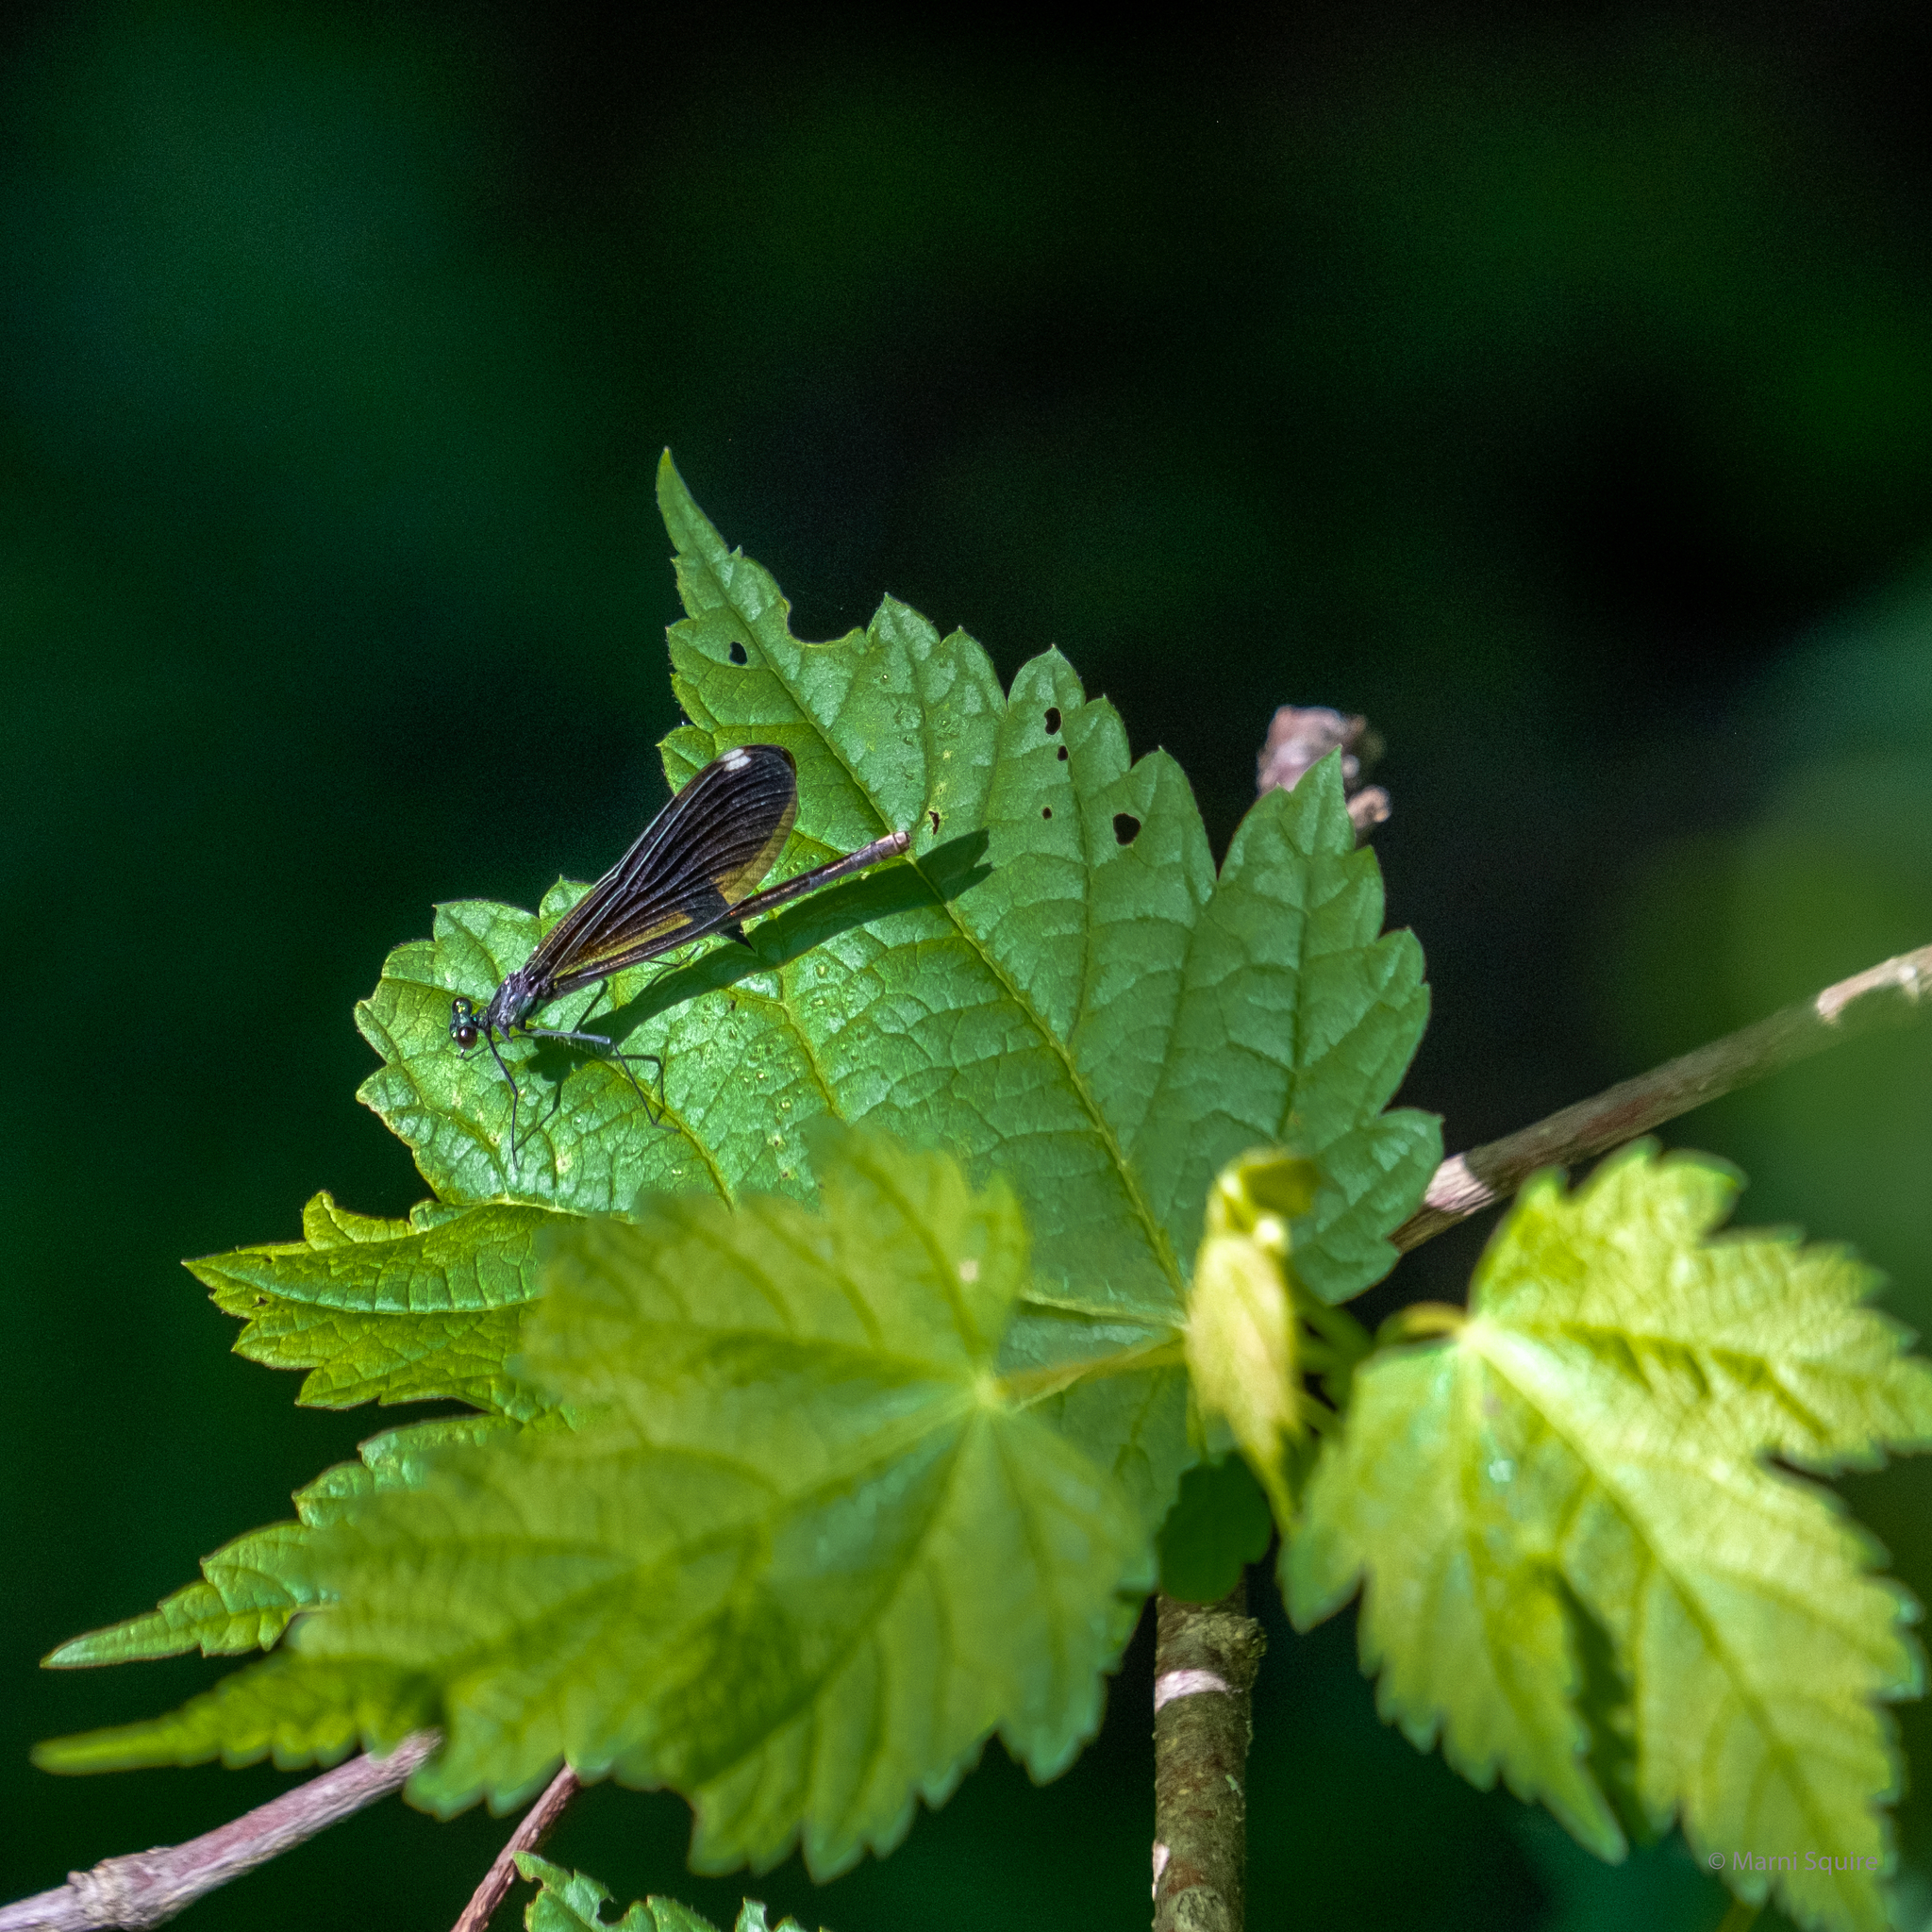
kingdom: Animalia
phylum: Arthropoda
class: Insecta
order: Odonata
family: Calopterygidae
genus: Calopteryx
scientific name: Calopteryx maculata
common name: Ebony jewelwing
